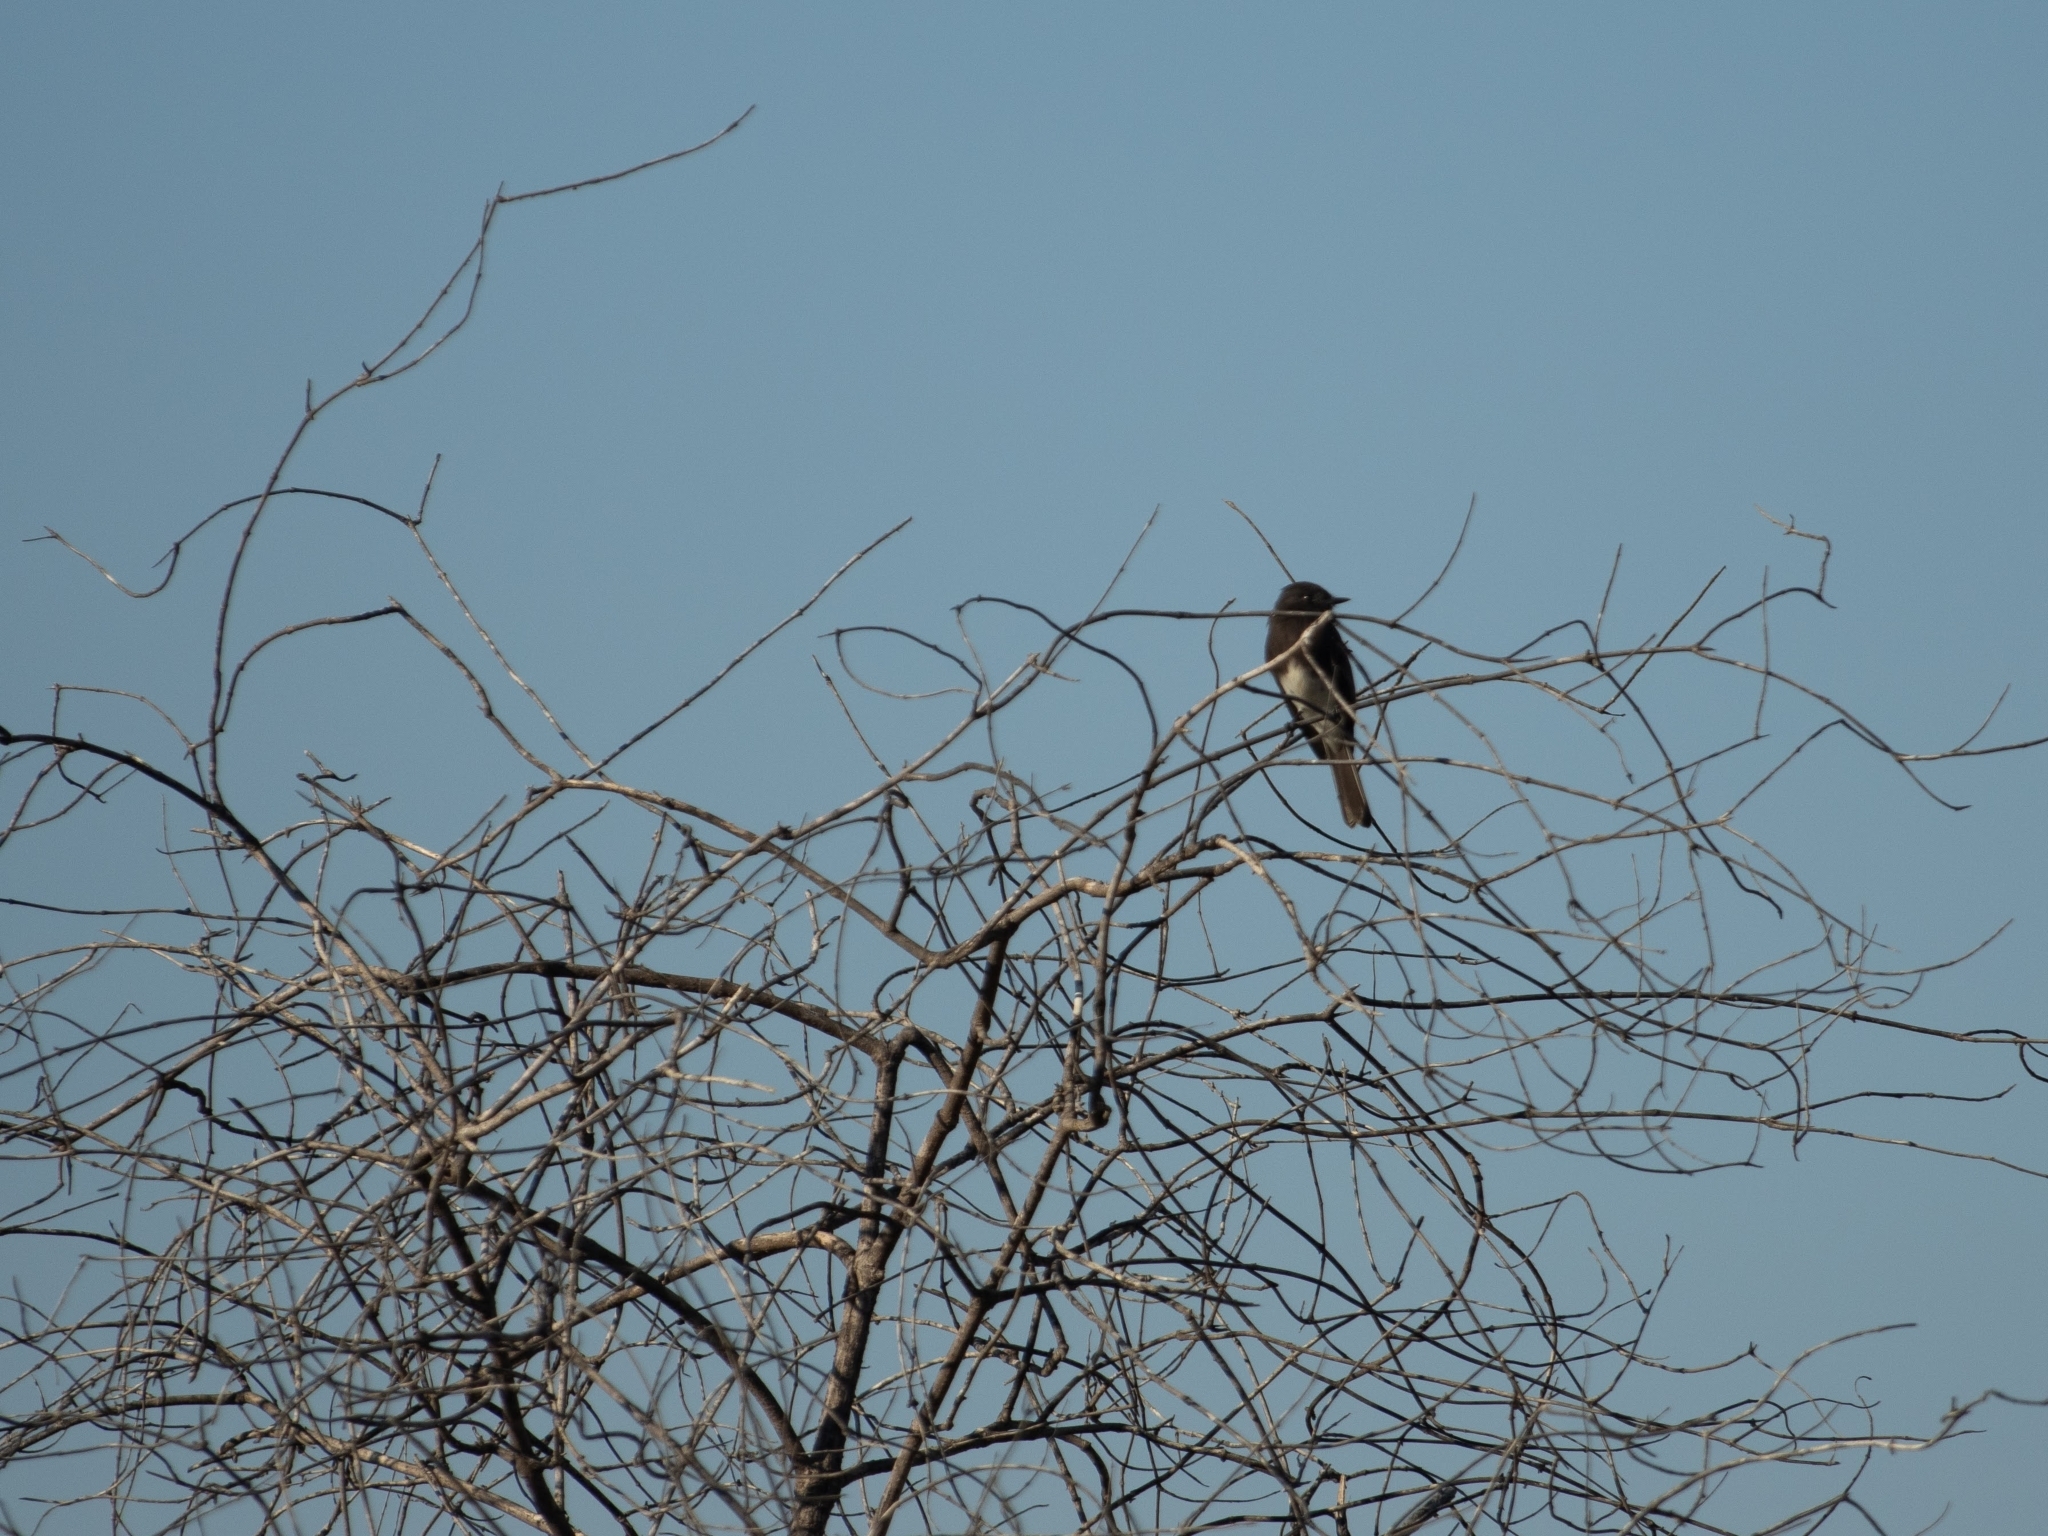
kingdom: Animalia
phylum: Chordata
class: Aves
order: Passeriformes
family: Tyrannidae
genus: Sayornis
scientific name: Sayornis nigricans
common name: Black phoebe
